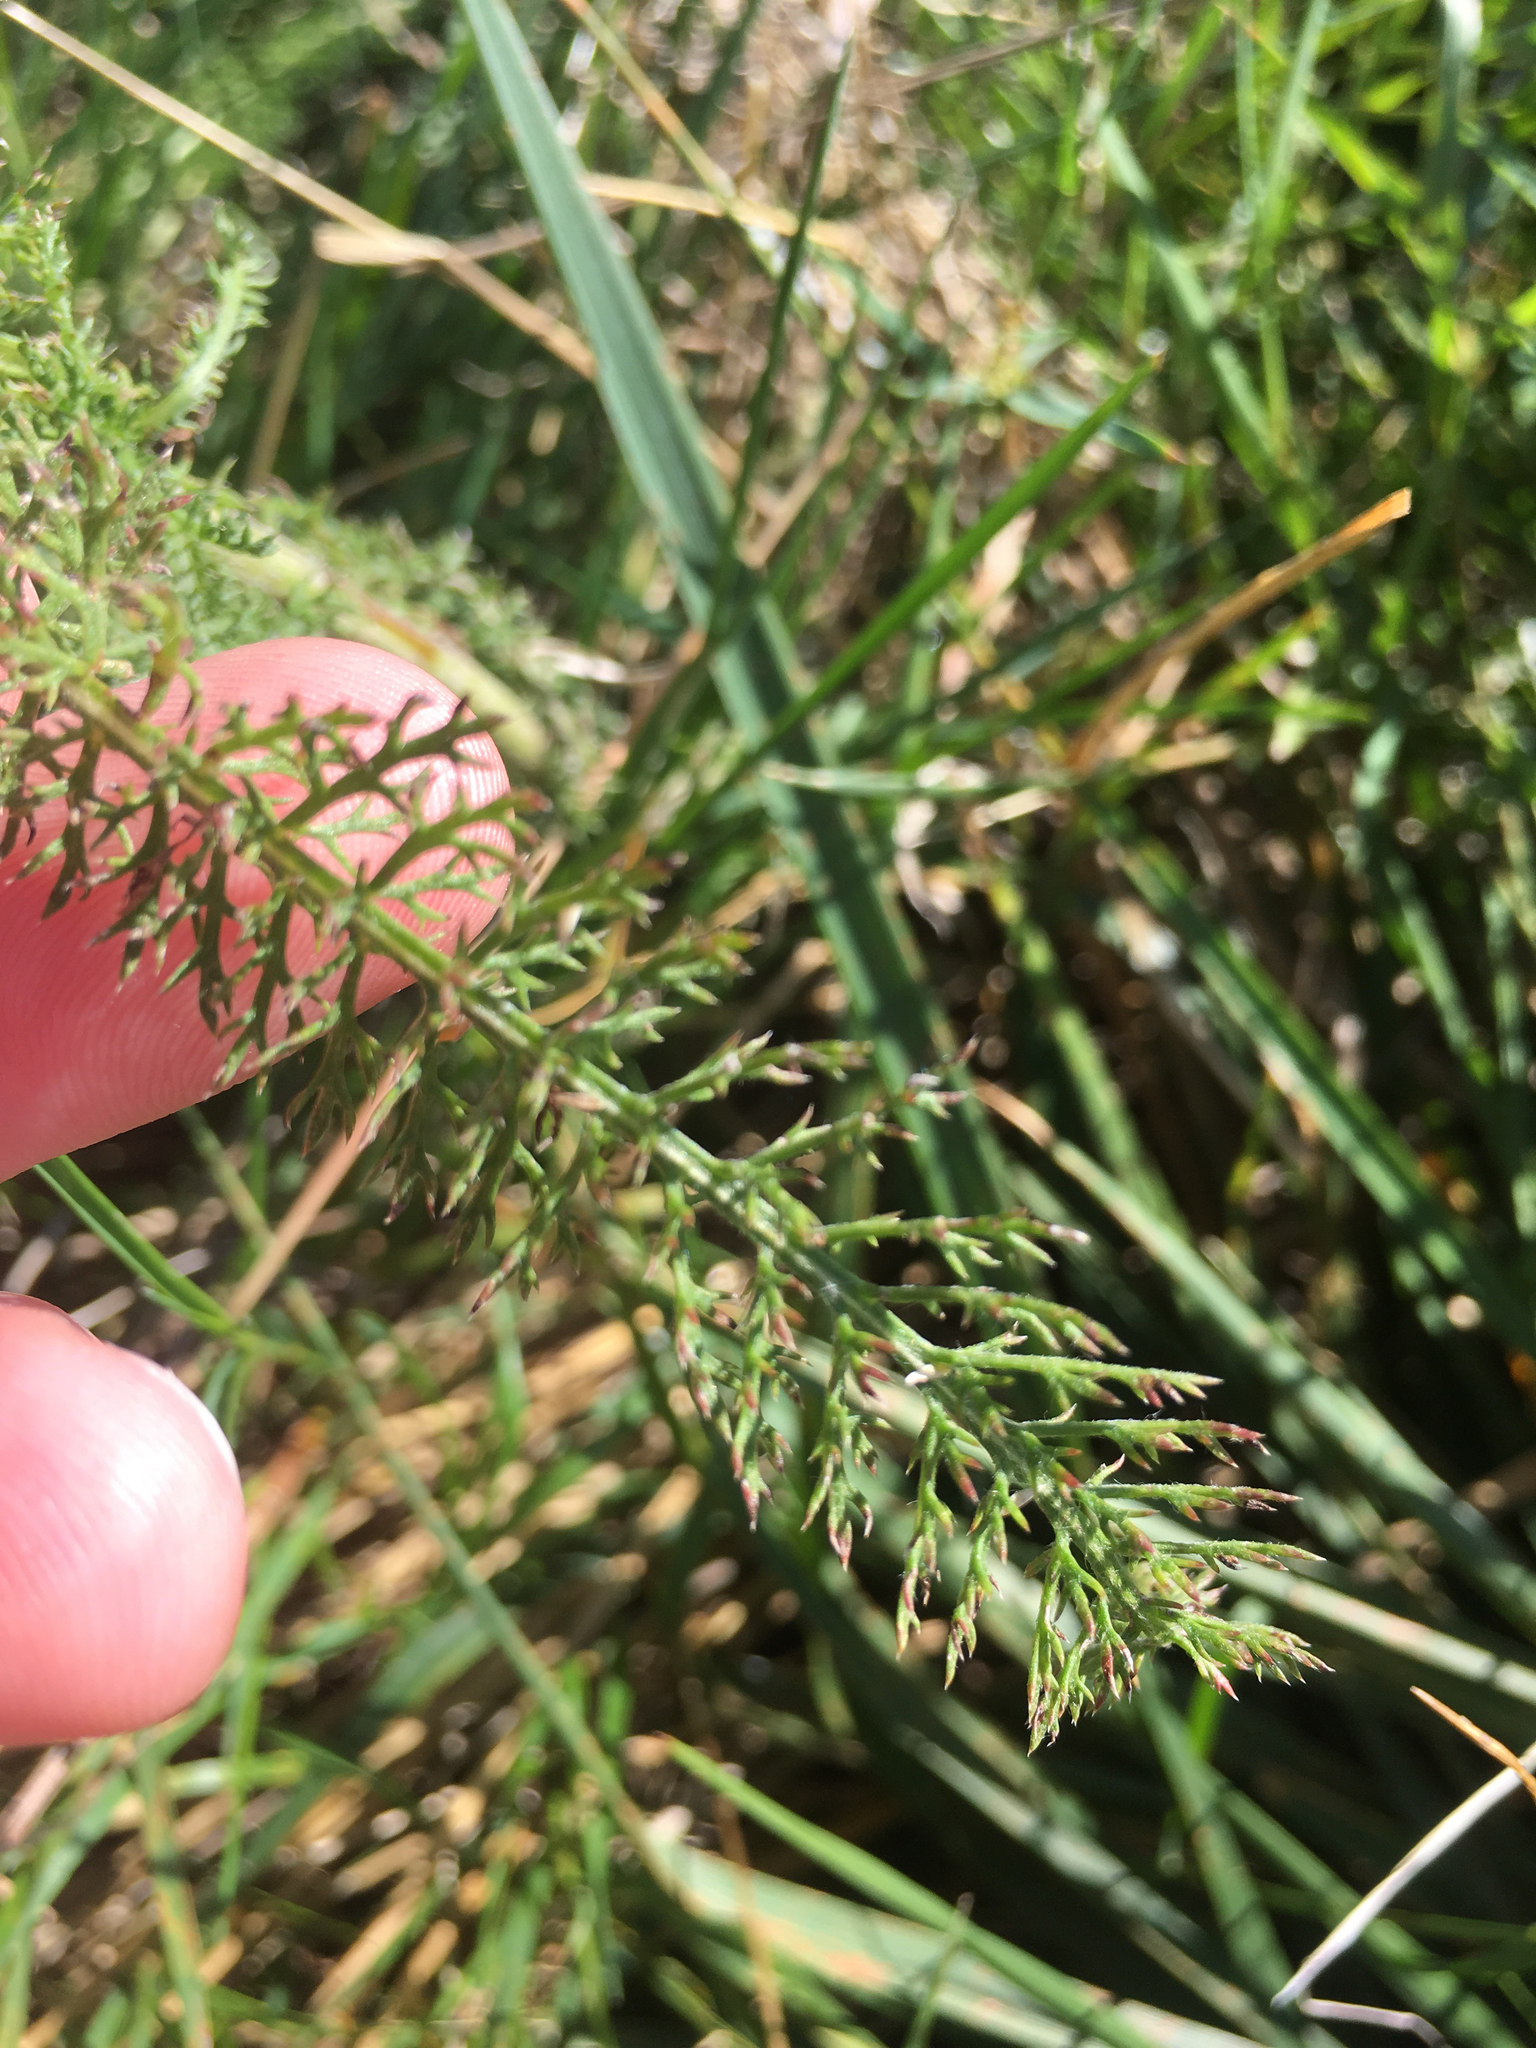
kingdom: Plantae
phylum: Tracheophyta
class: Magnoliopsida
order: Asterales
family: Asteraceae
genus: Achillea
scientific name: Achillea millefolium
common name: Yarrow
